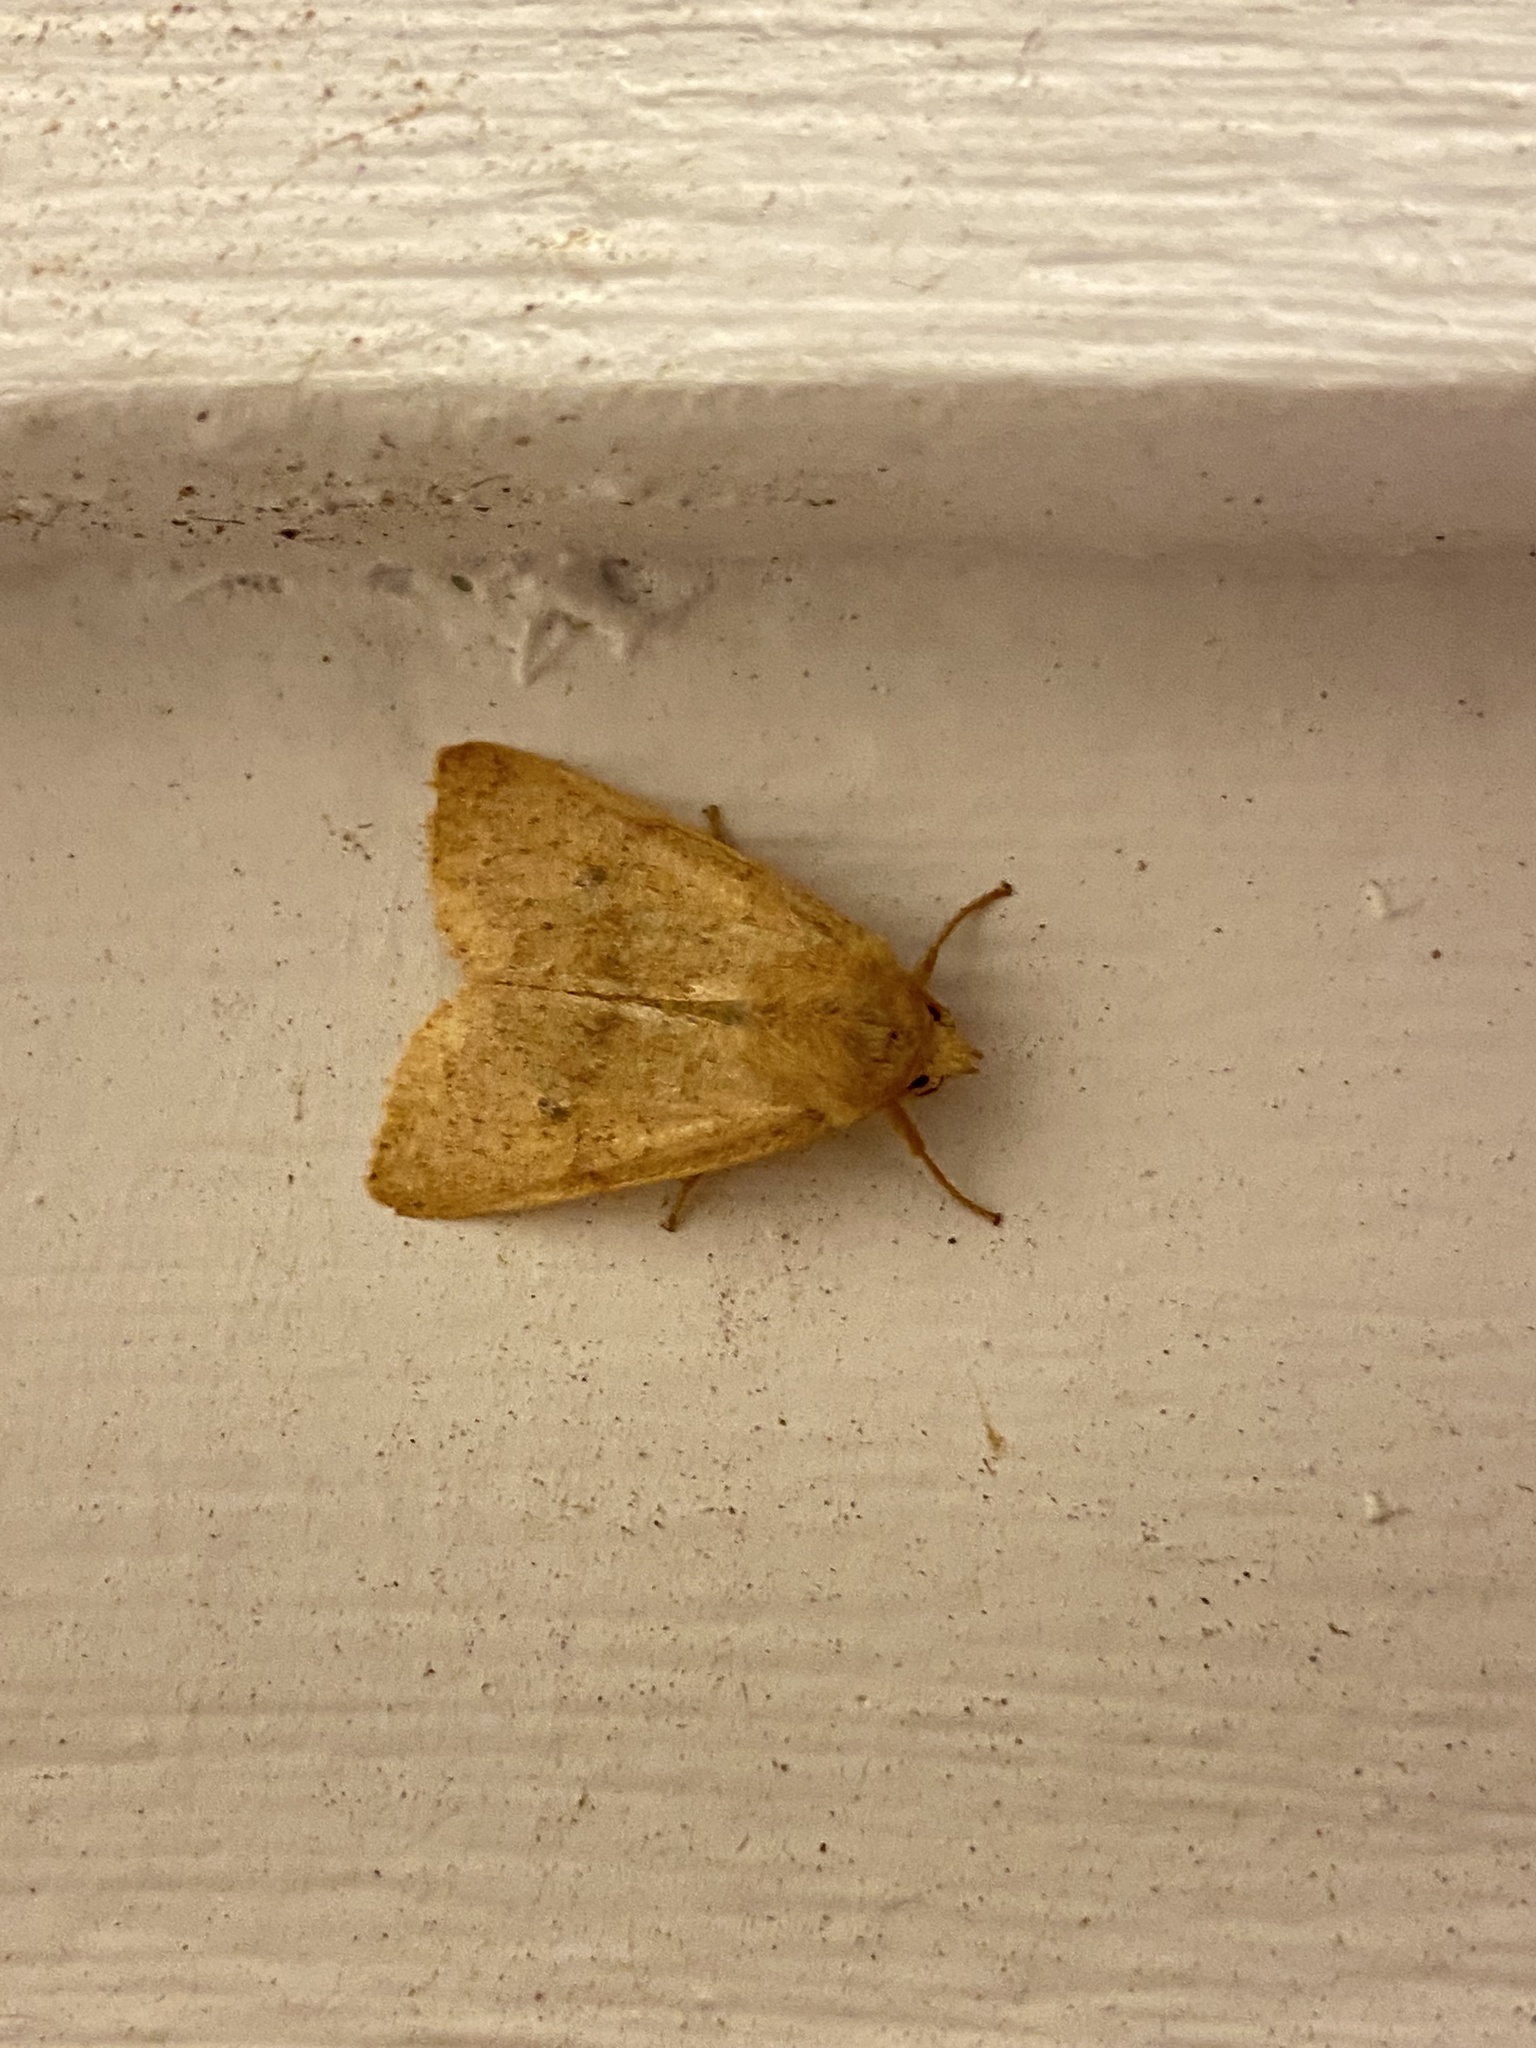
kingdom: Animalia
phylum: Arthropoda
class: Insecta
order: Lepidoptera
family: Noctuidae
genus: Agrochola
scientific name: Agrochola bicolorago
